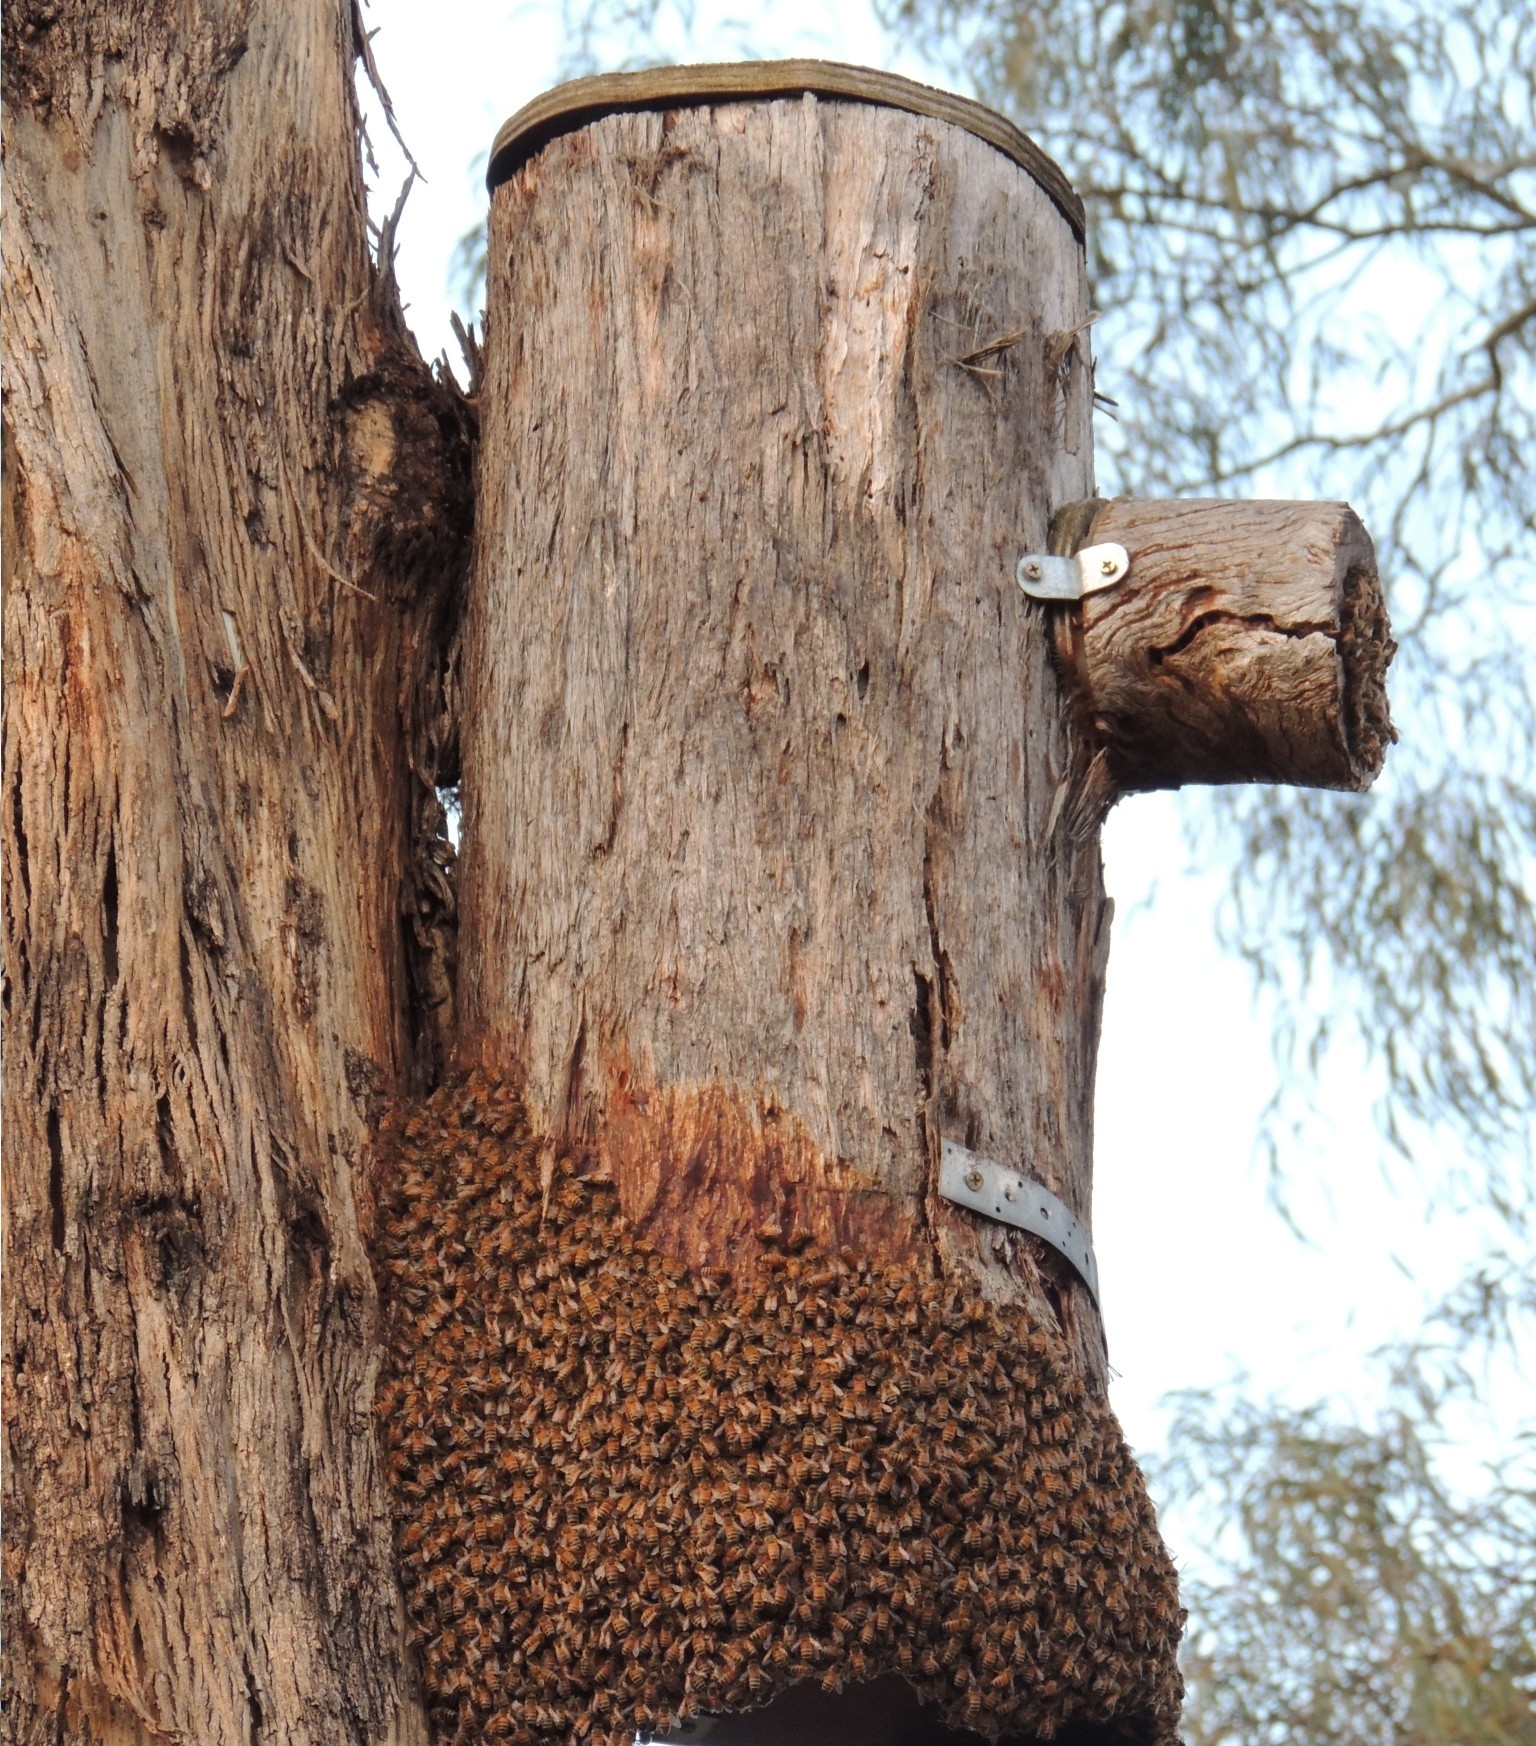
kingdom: Animalia
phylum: Arthropoda
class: Insecta
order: Hymenoptera
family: Apidae
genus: Apis
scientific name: Apis mellifera
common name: Honey bee
